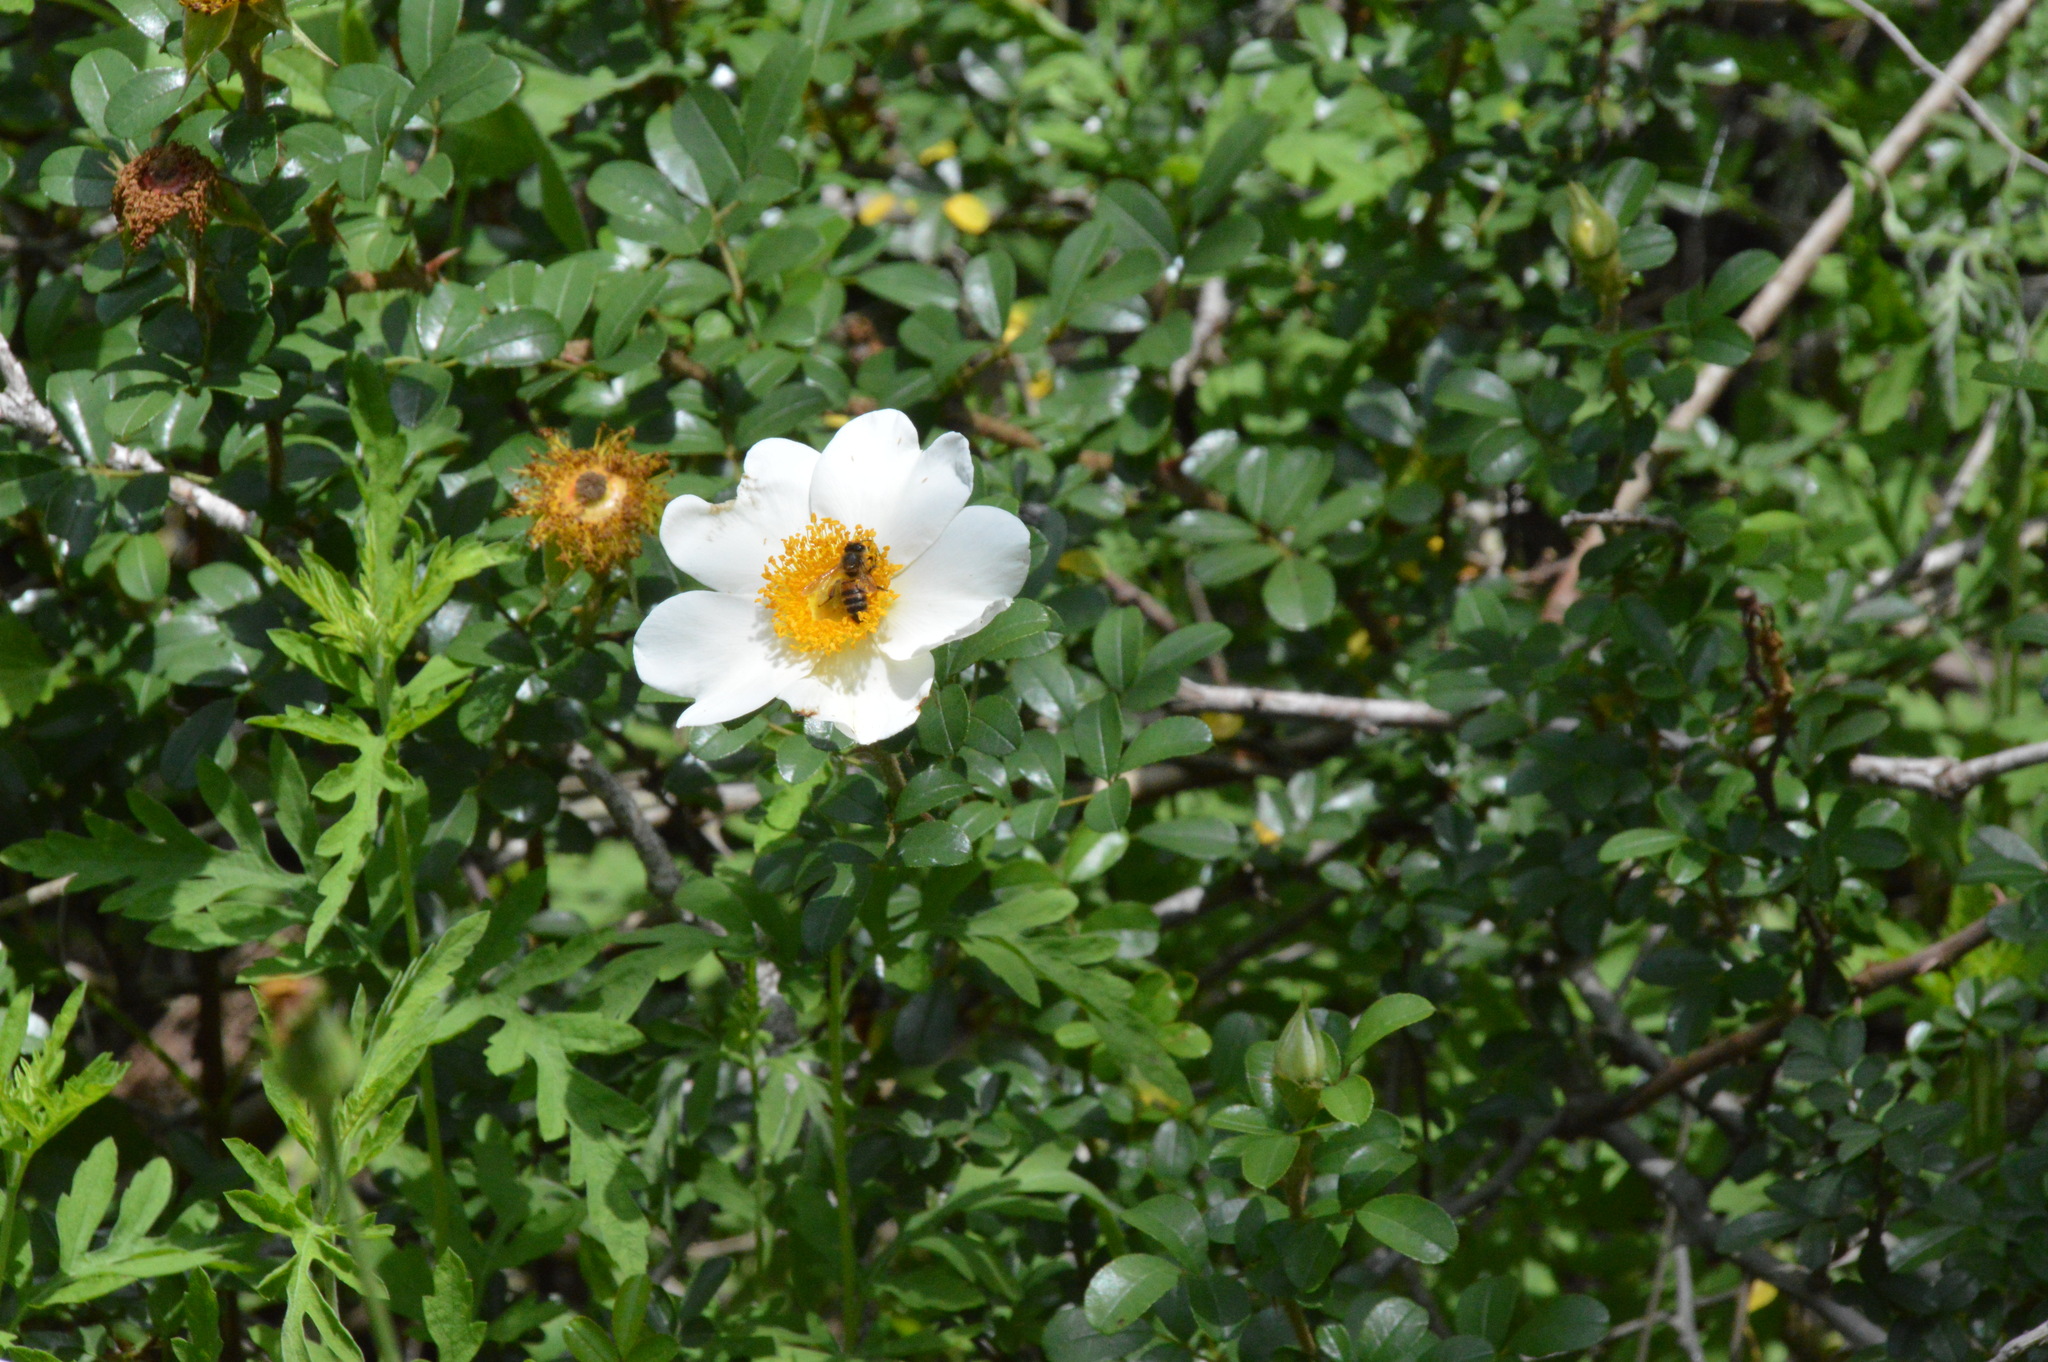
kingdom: Plantae
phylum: Tracheophyta
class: Magnoliopsida
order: Rosales
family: Rosaceae
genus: Rosa
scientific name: Rosa bracteata
